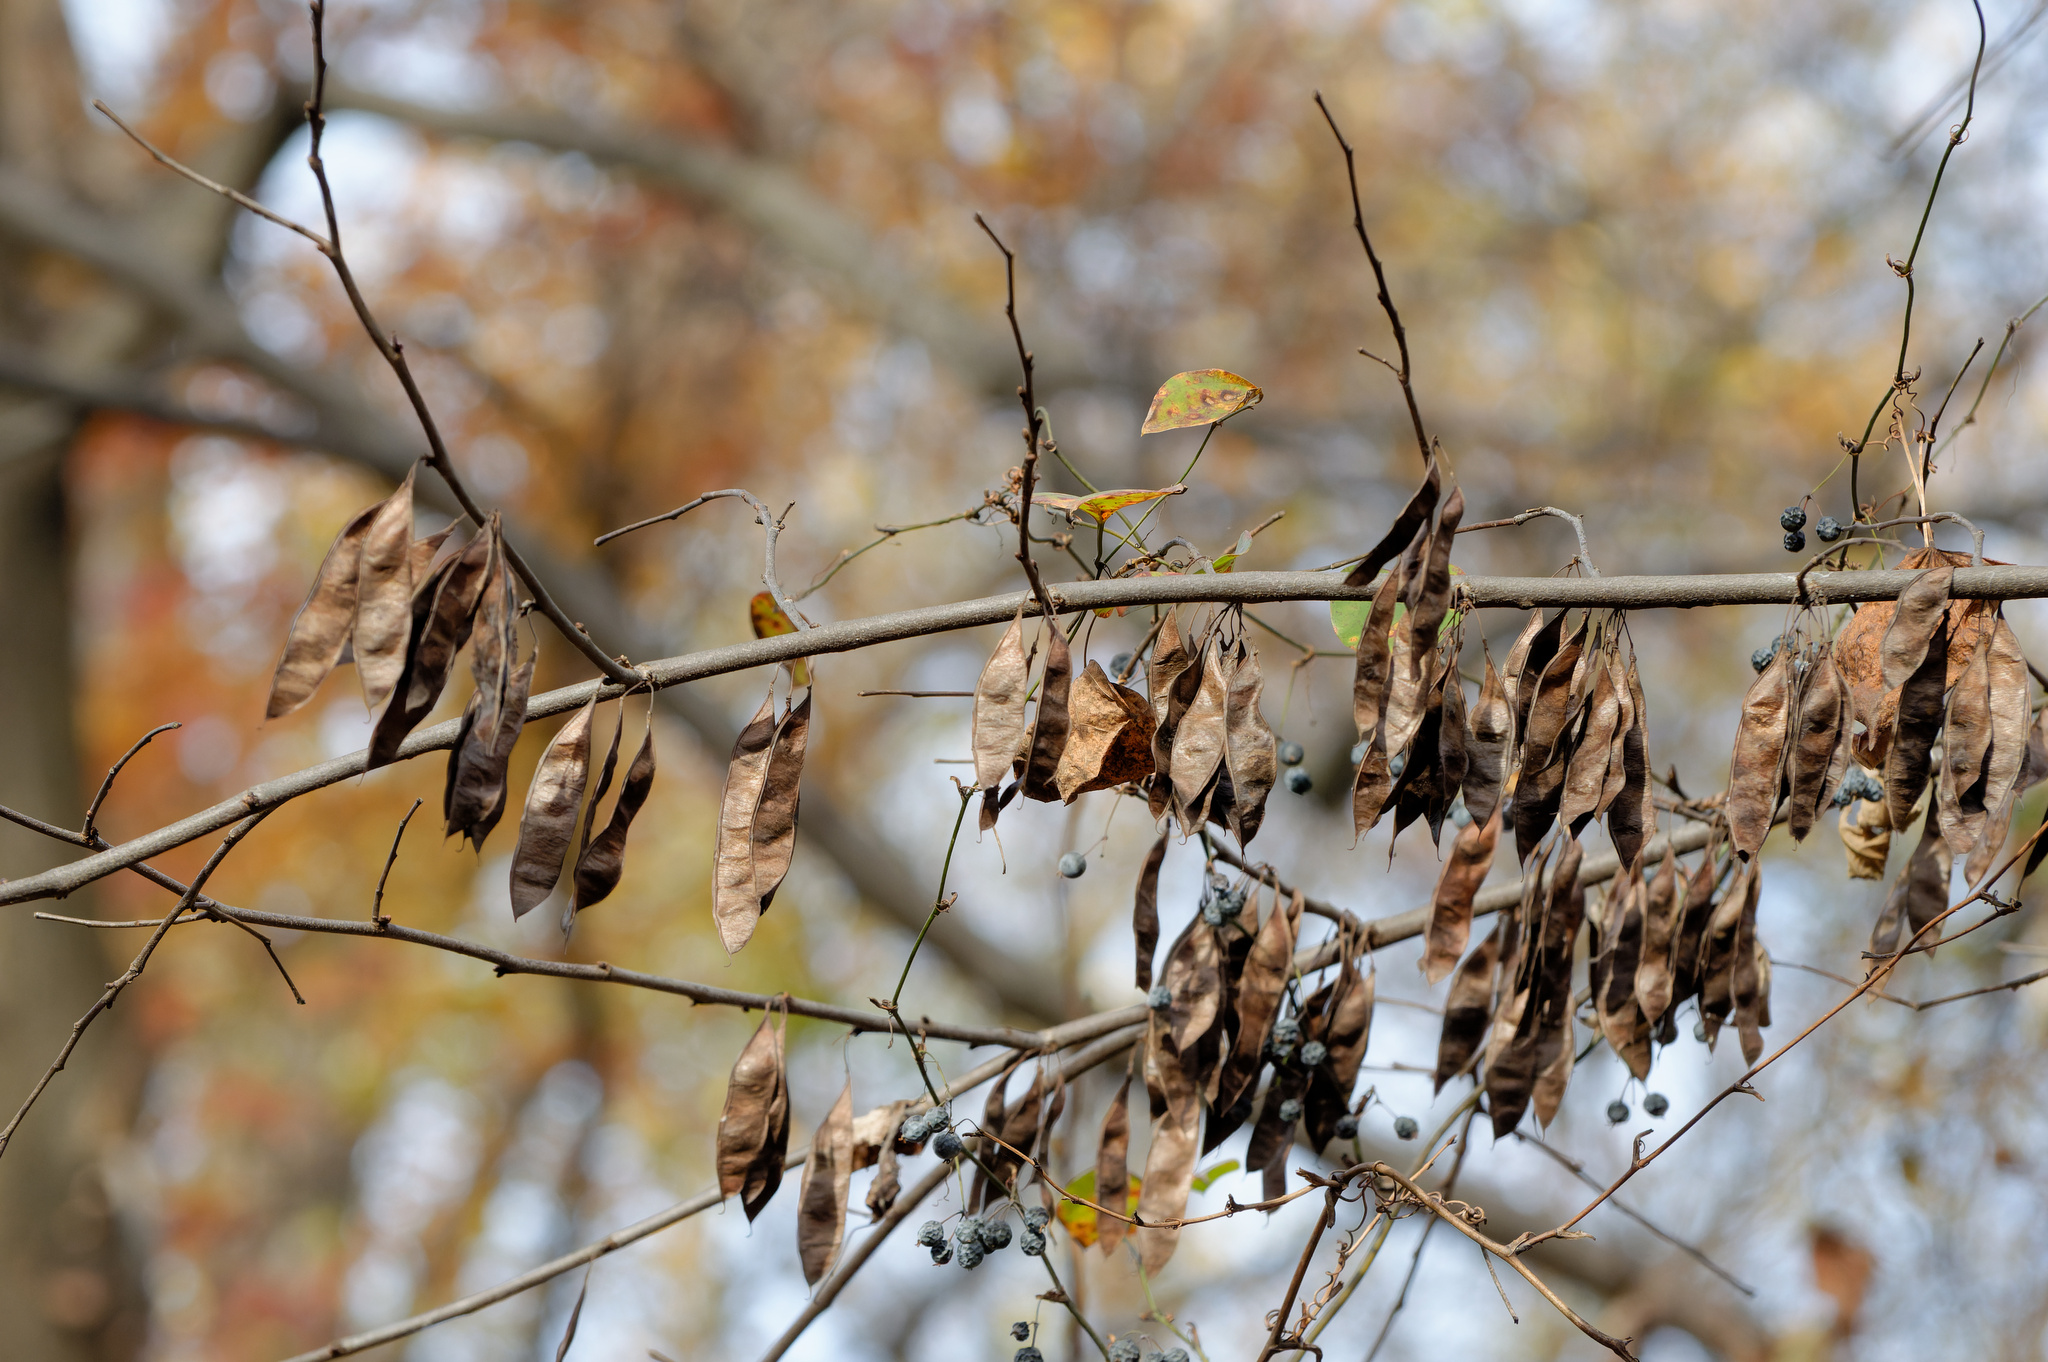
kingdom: Plantae
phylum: Tracheophyta
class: Magnoliopsida
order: Fabales
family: Fabaceae
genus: Cercis
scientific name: Cercis canadensis
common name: Eastern redbud
